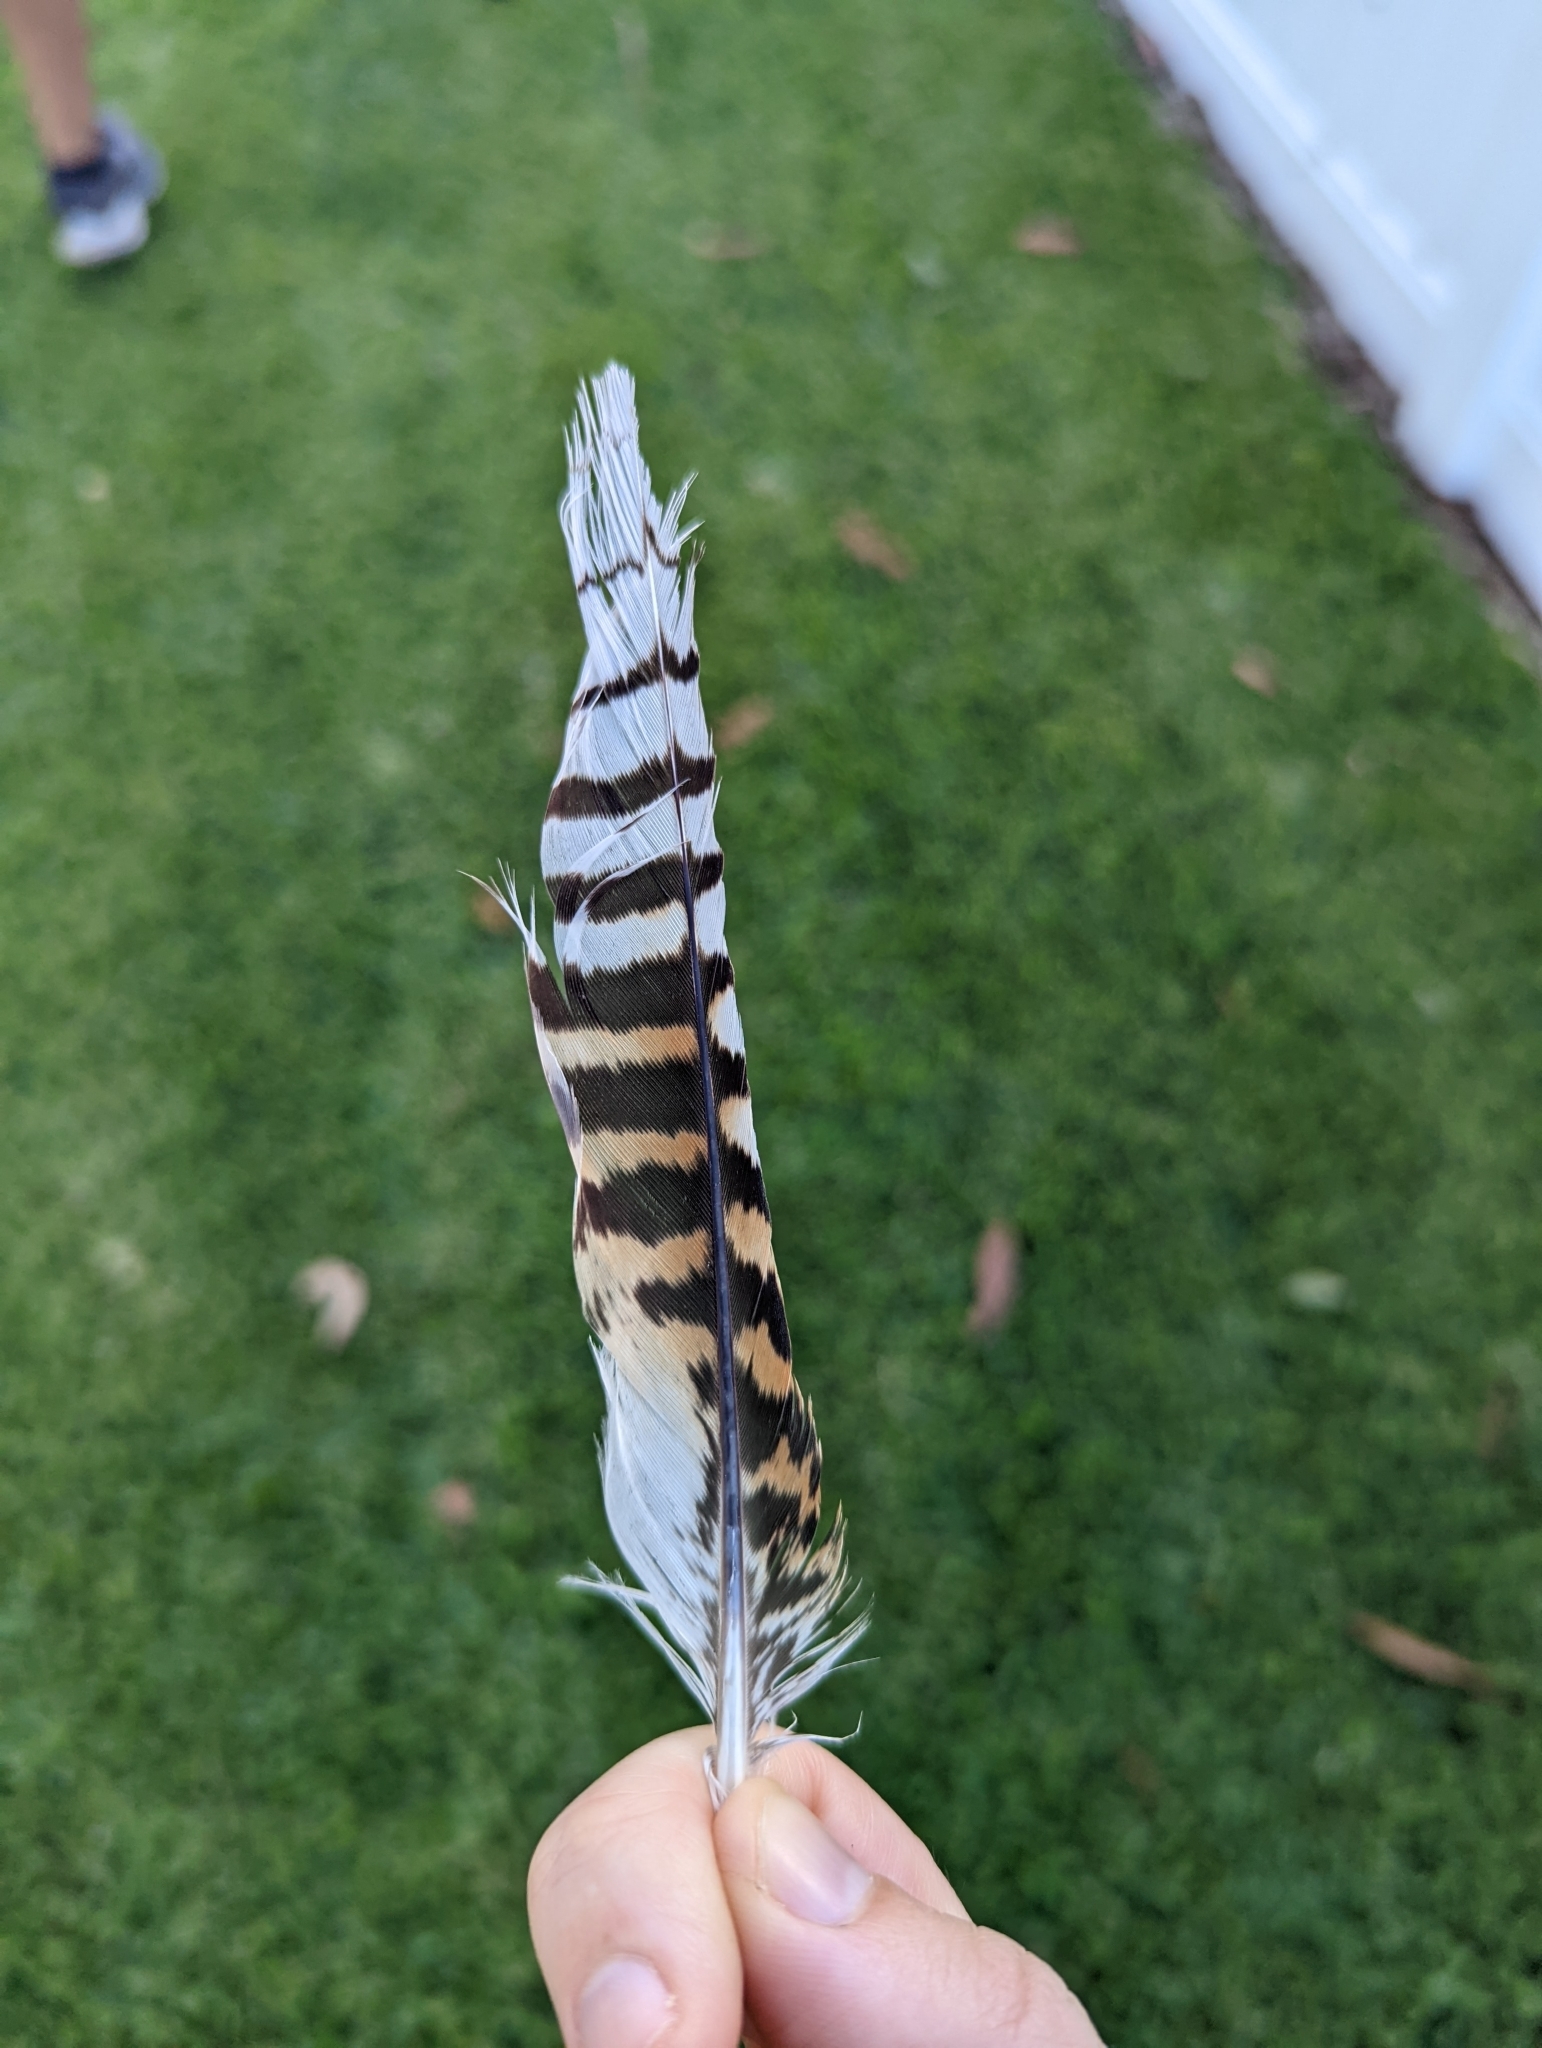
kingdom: Animalia
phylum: Chordata
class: Aves
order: Coraciiformes
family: Alcedinidae
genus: Dacelo
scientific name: Dacelo novaeguineae
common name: Laughing kookaburra
